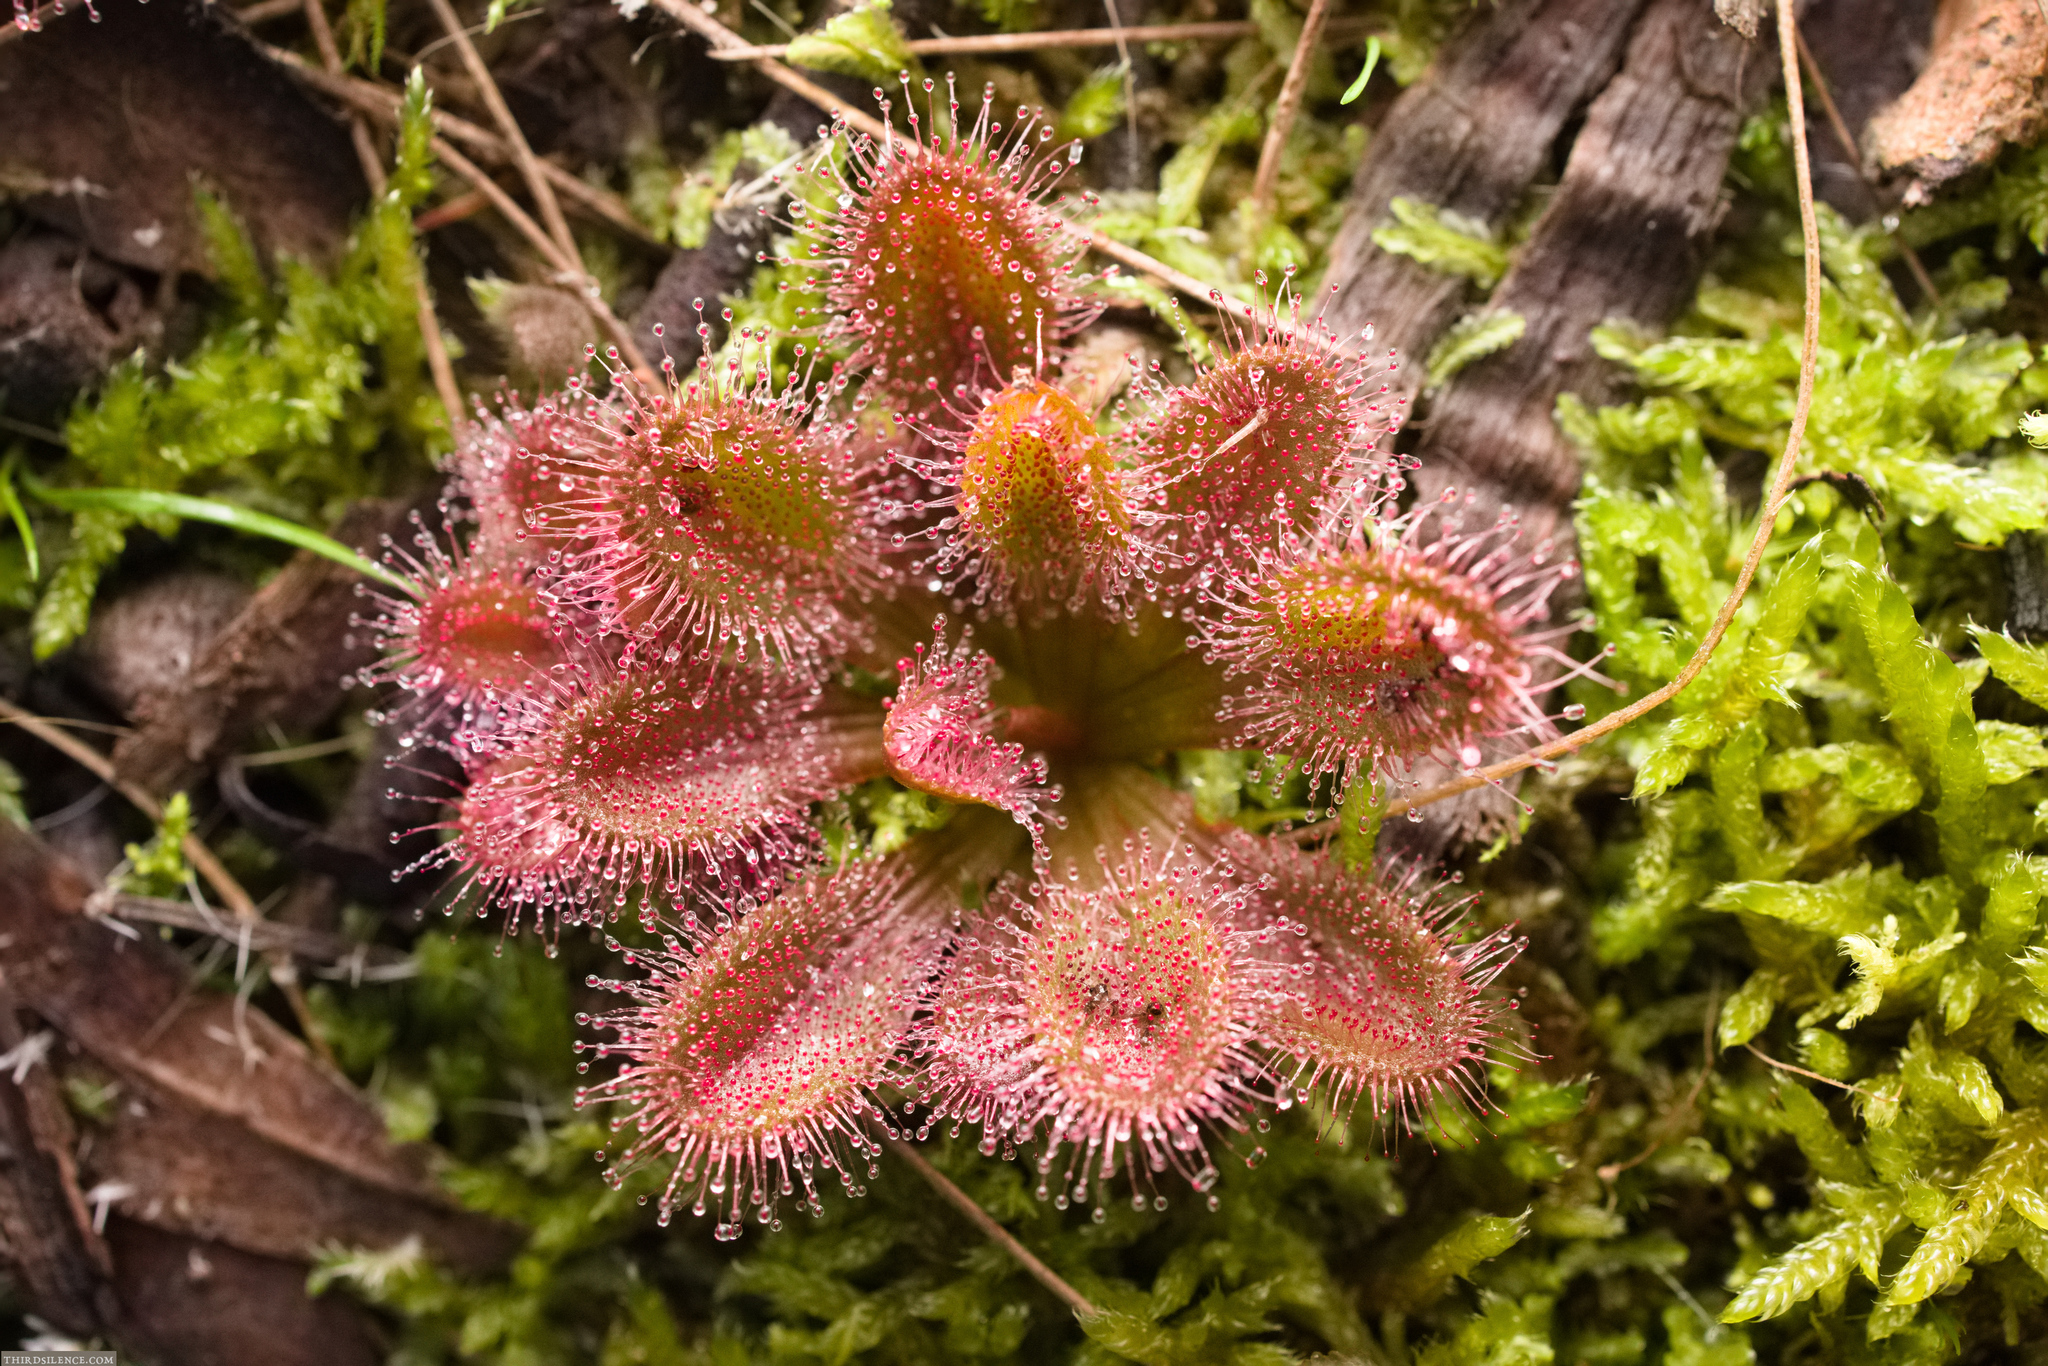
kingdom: Plantae
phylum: Tracheophyta
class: Magnoliopsida
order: Caryophyllales
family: Droseraceae
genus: Drosera
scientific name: Drosera aberrans
